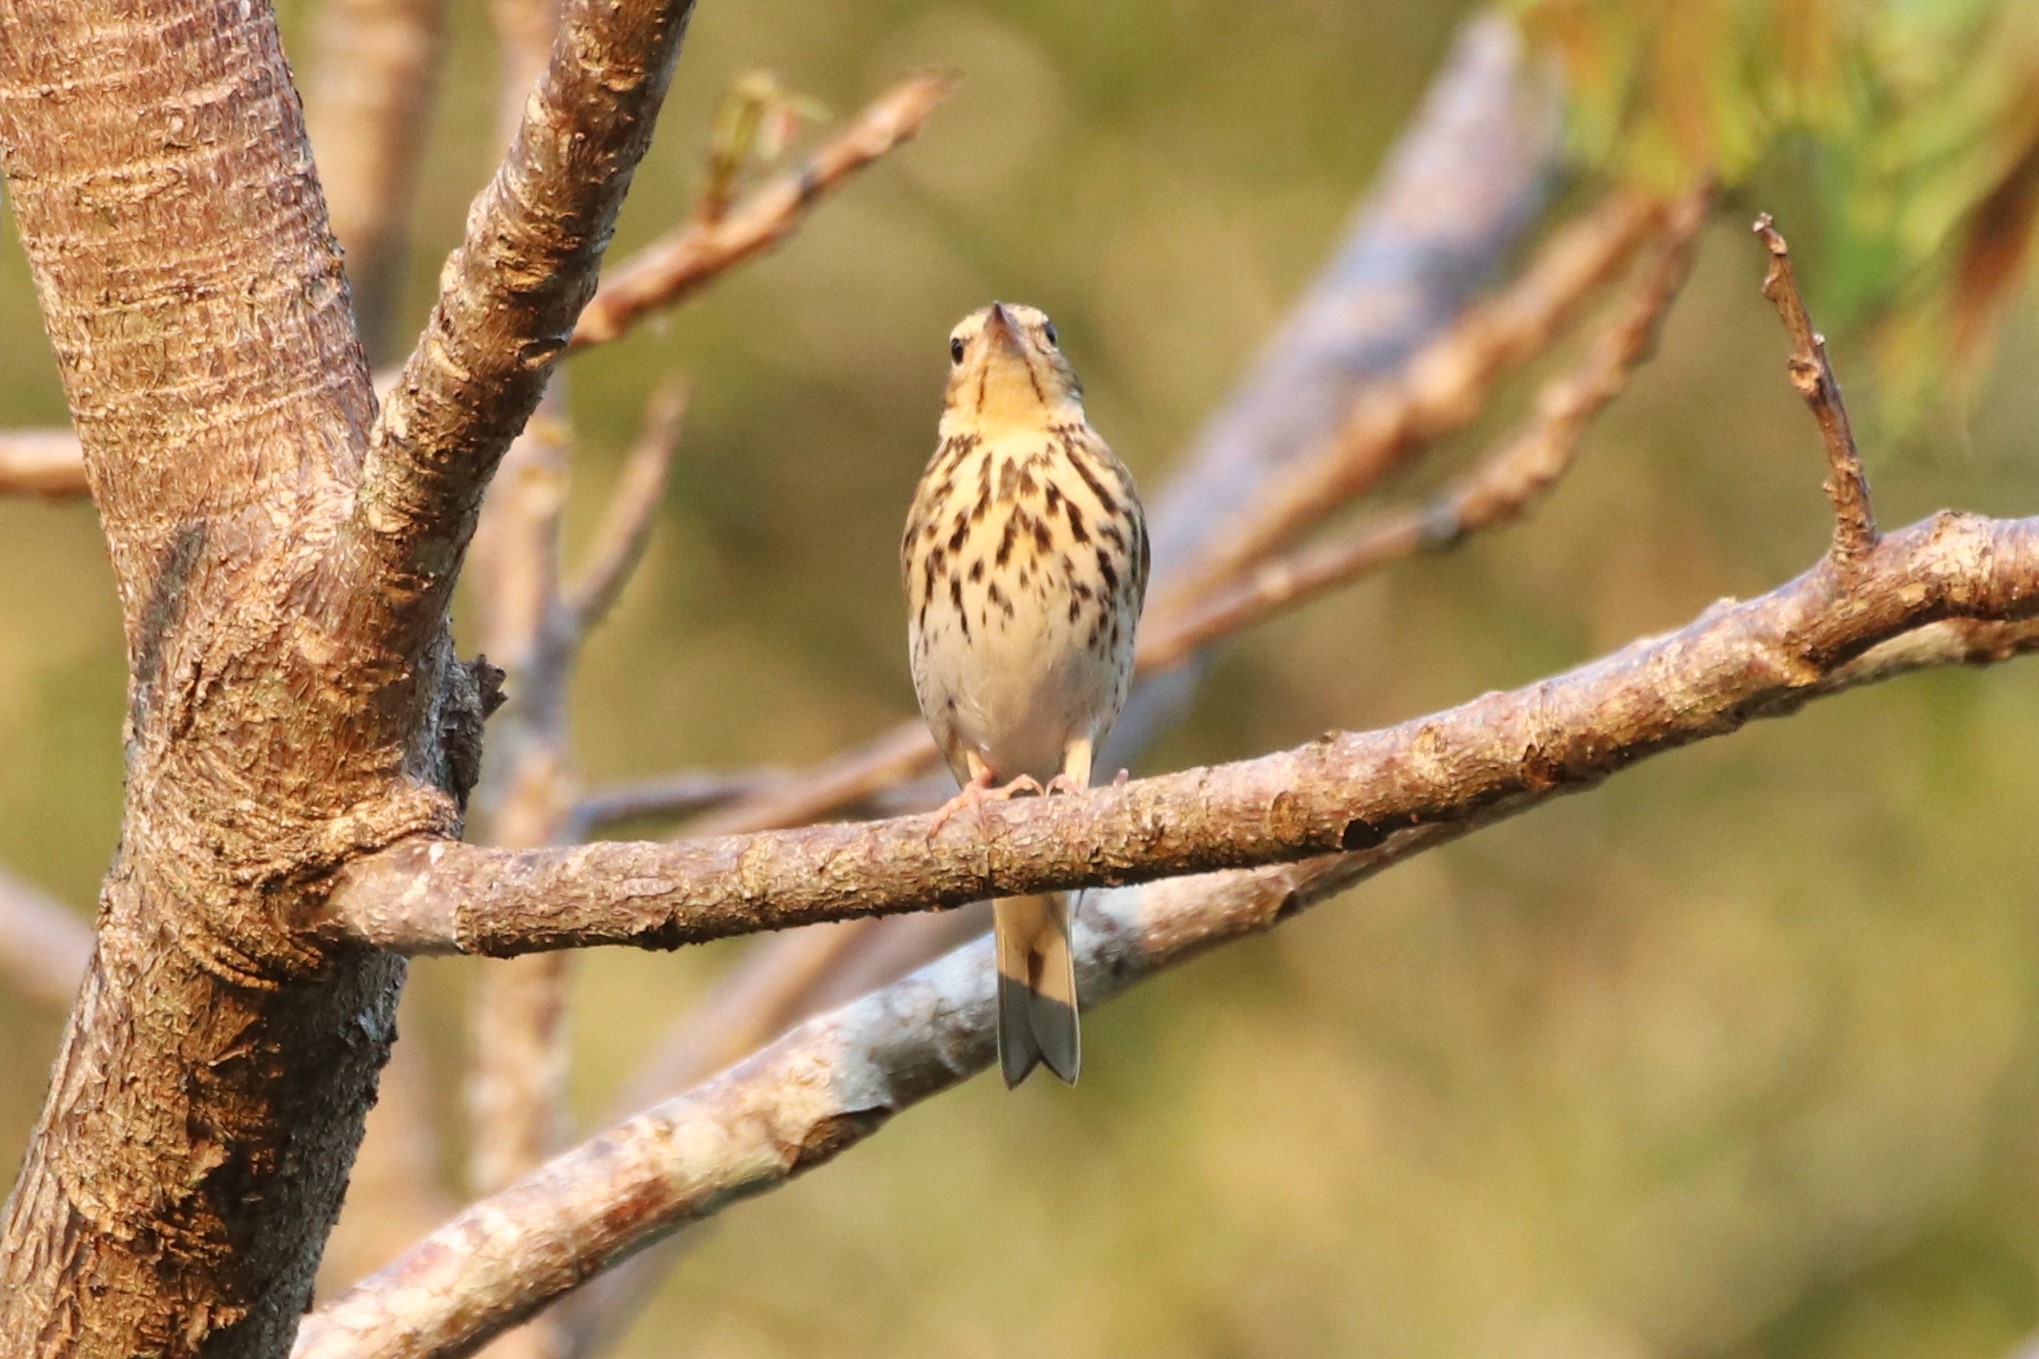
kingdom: Animalia
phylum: Chordata
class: Aves
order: Passeriformes
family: Motacillidae
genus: Anthus
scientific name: Anthus hodgsoni
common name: Olive-backed pipit
